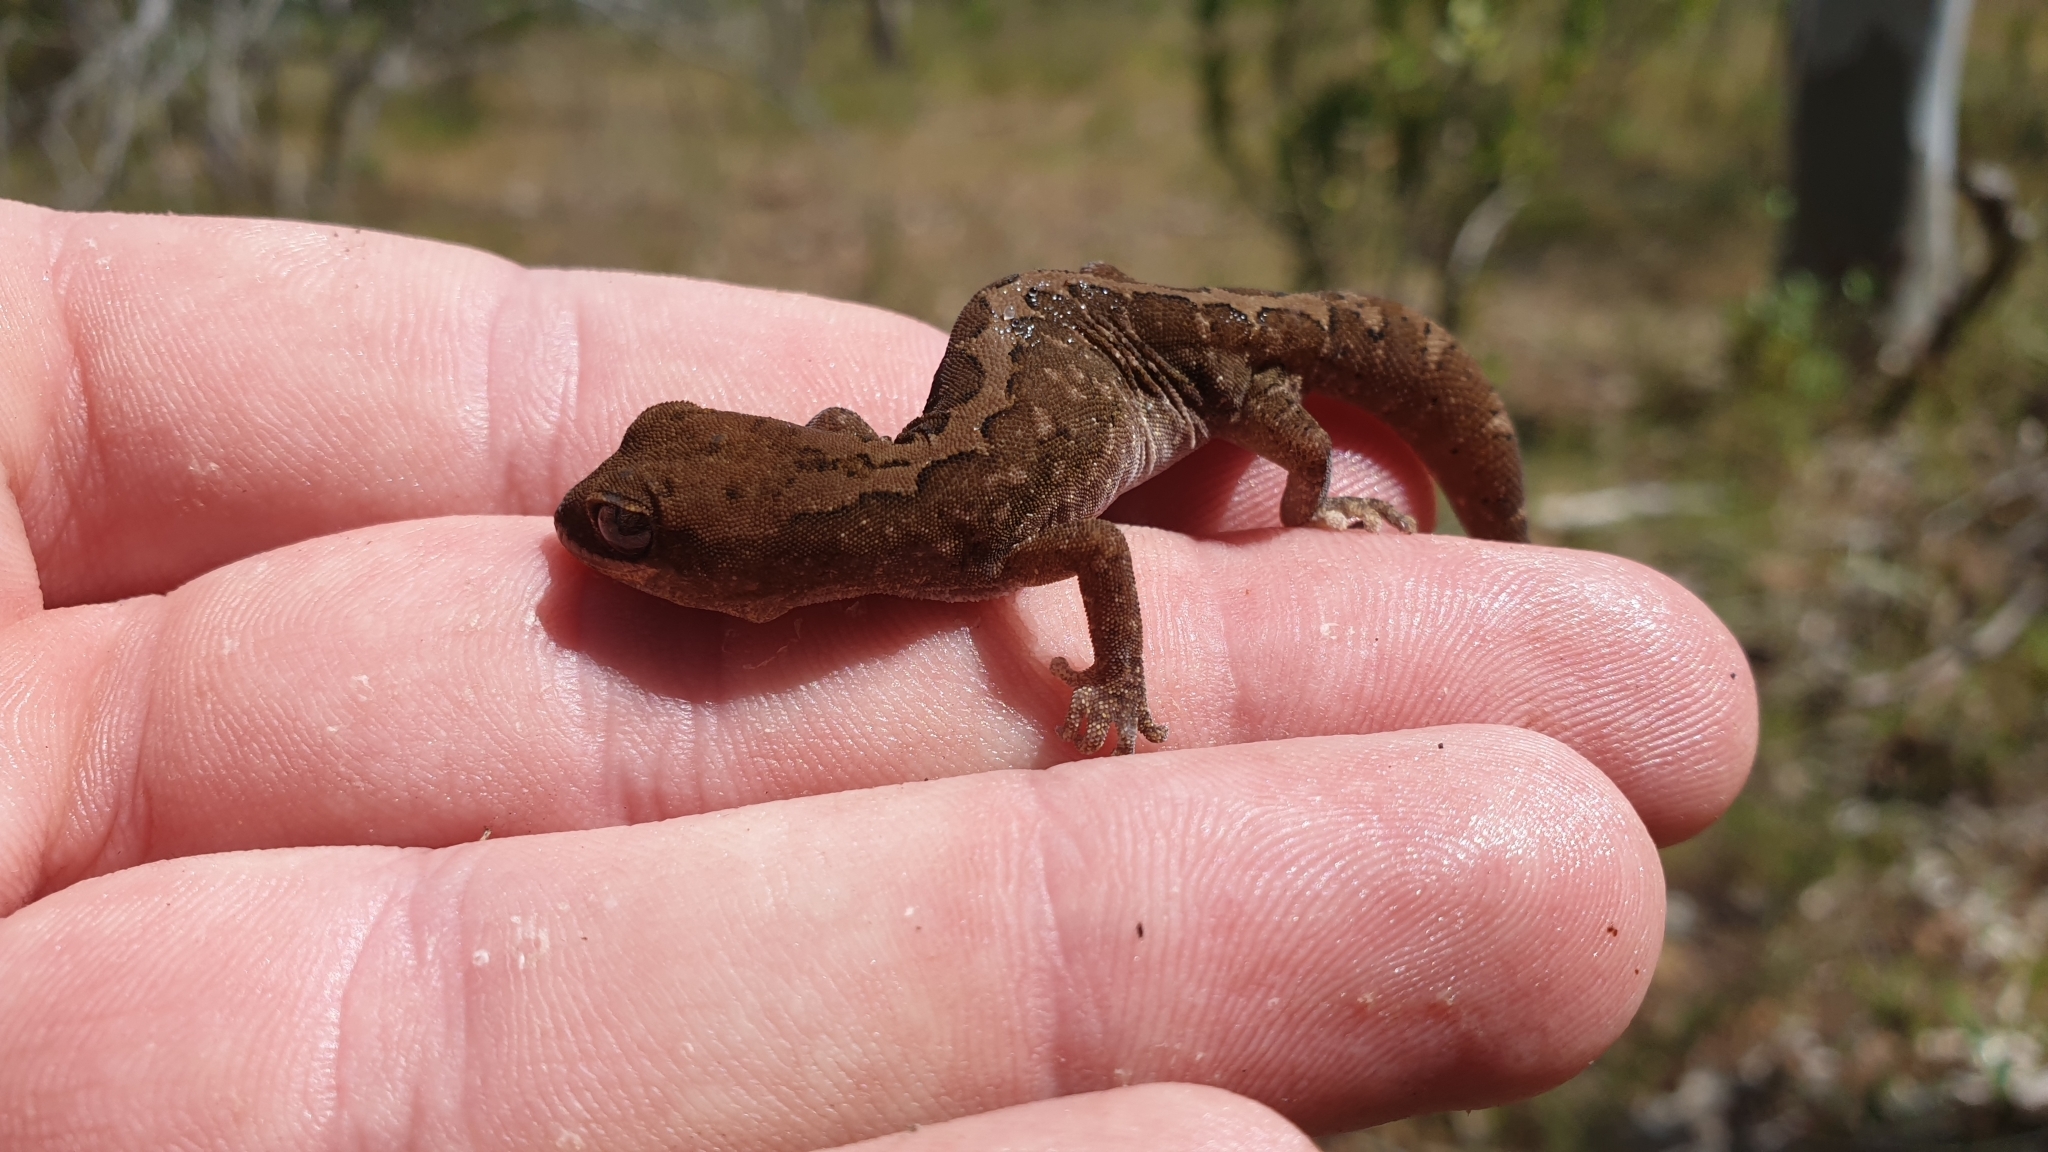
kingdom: Animalia
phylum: Chordata
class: Squamata
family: Diplodactylidae
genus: Diplodactylus
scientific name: Diplodactylus furcosus
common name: Ranges stone gecko
